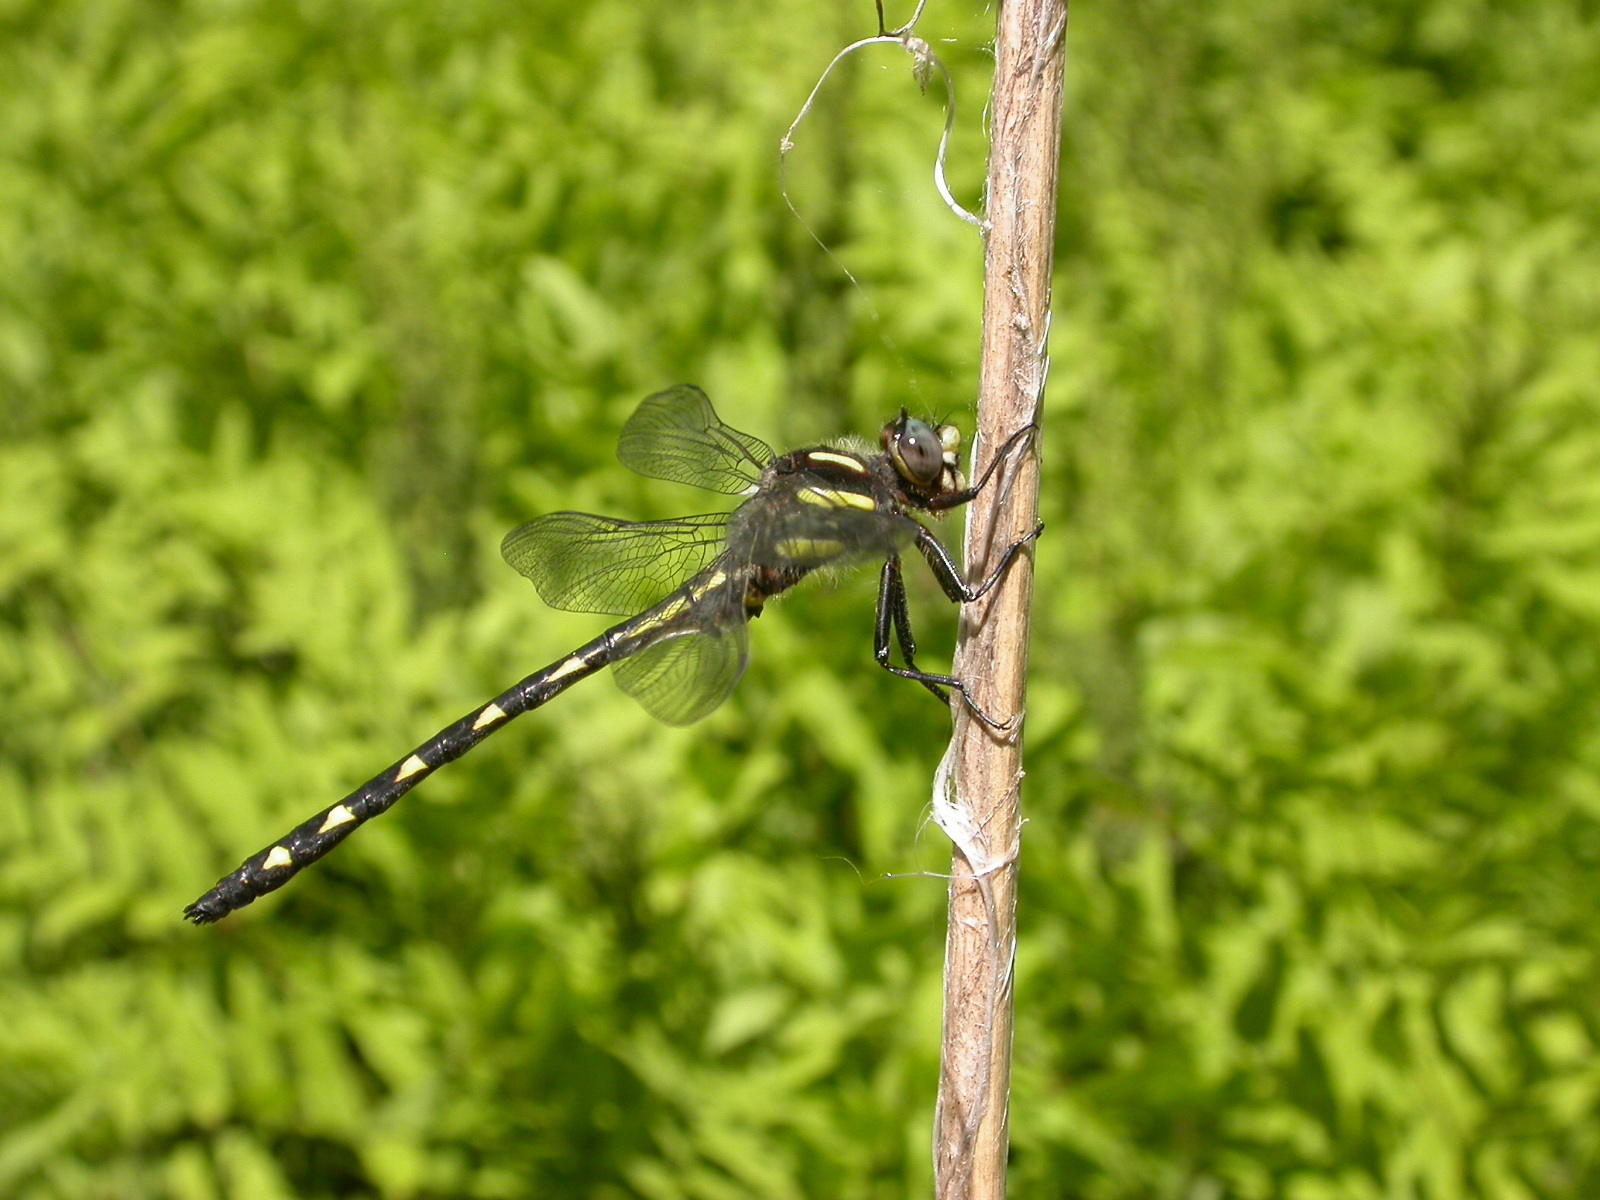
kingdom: Animalia
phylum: Arthropoda
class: Insecta
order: Odonata
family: Cordulegastridae
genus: Cordulegaster
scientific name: Cordulegaster diastatops
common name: Delta-spotted spiketail
